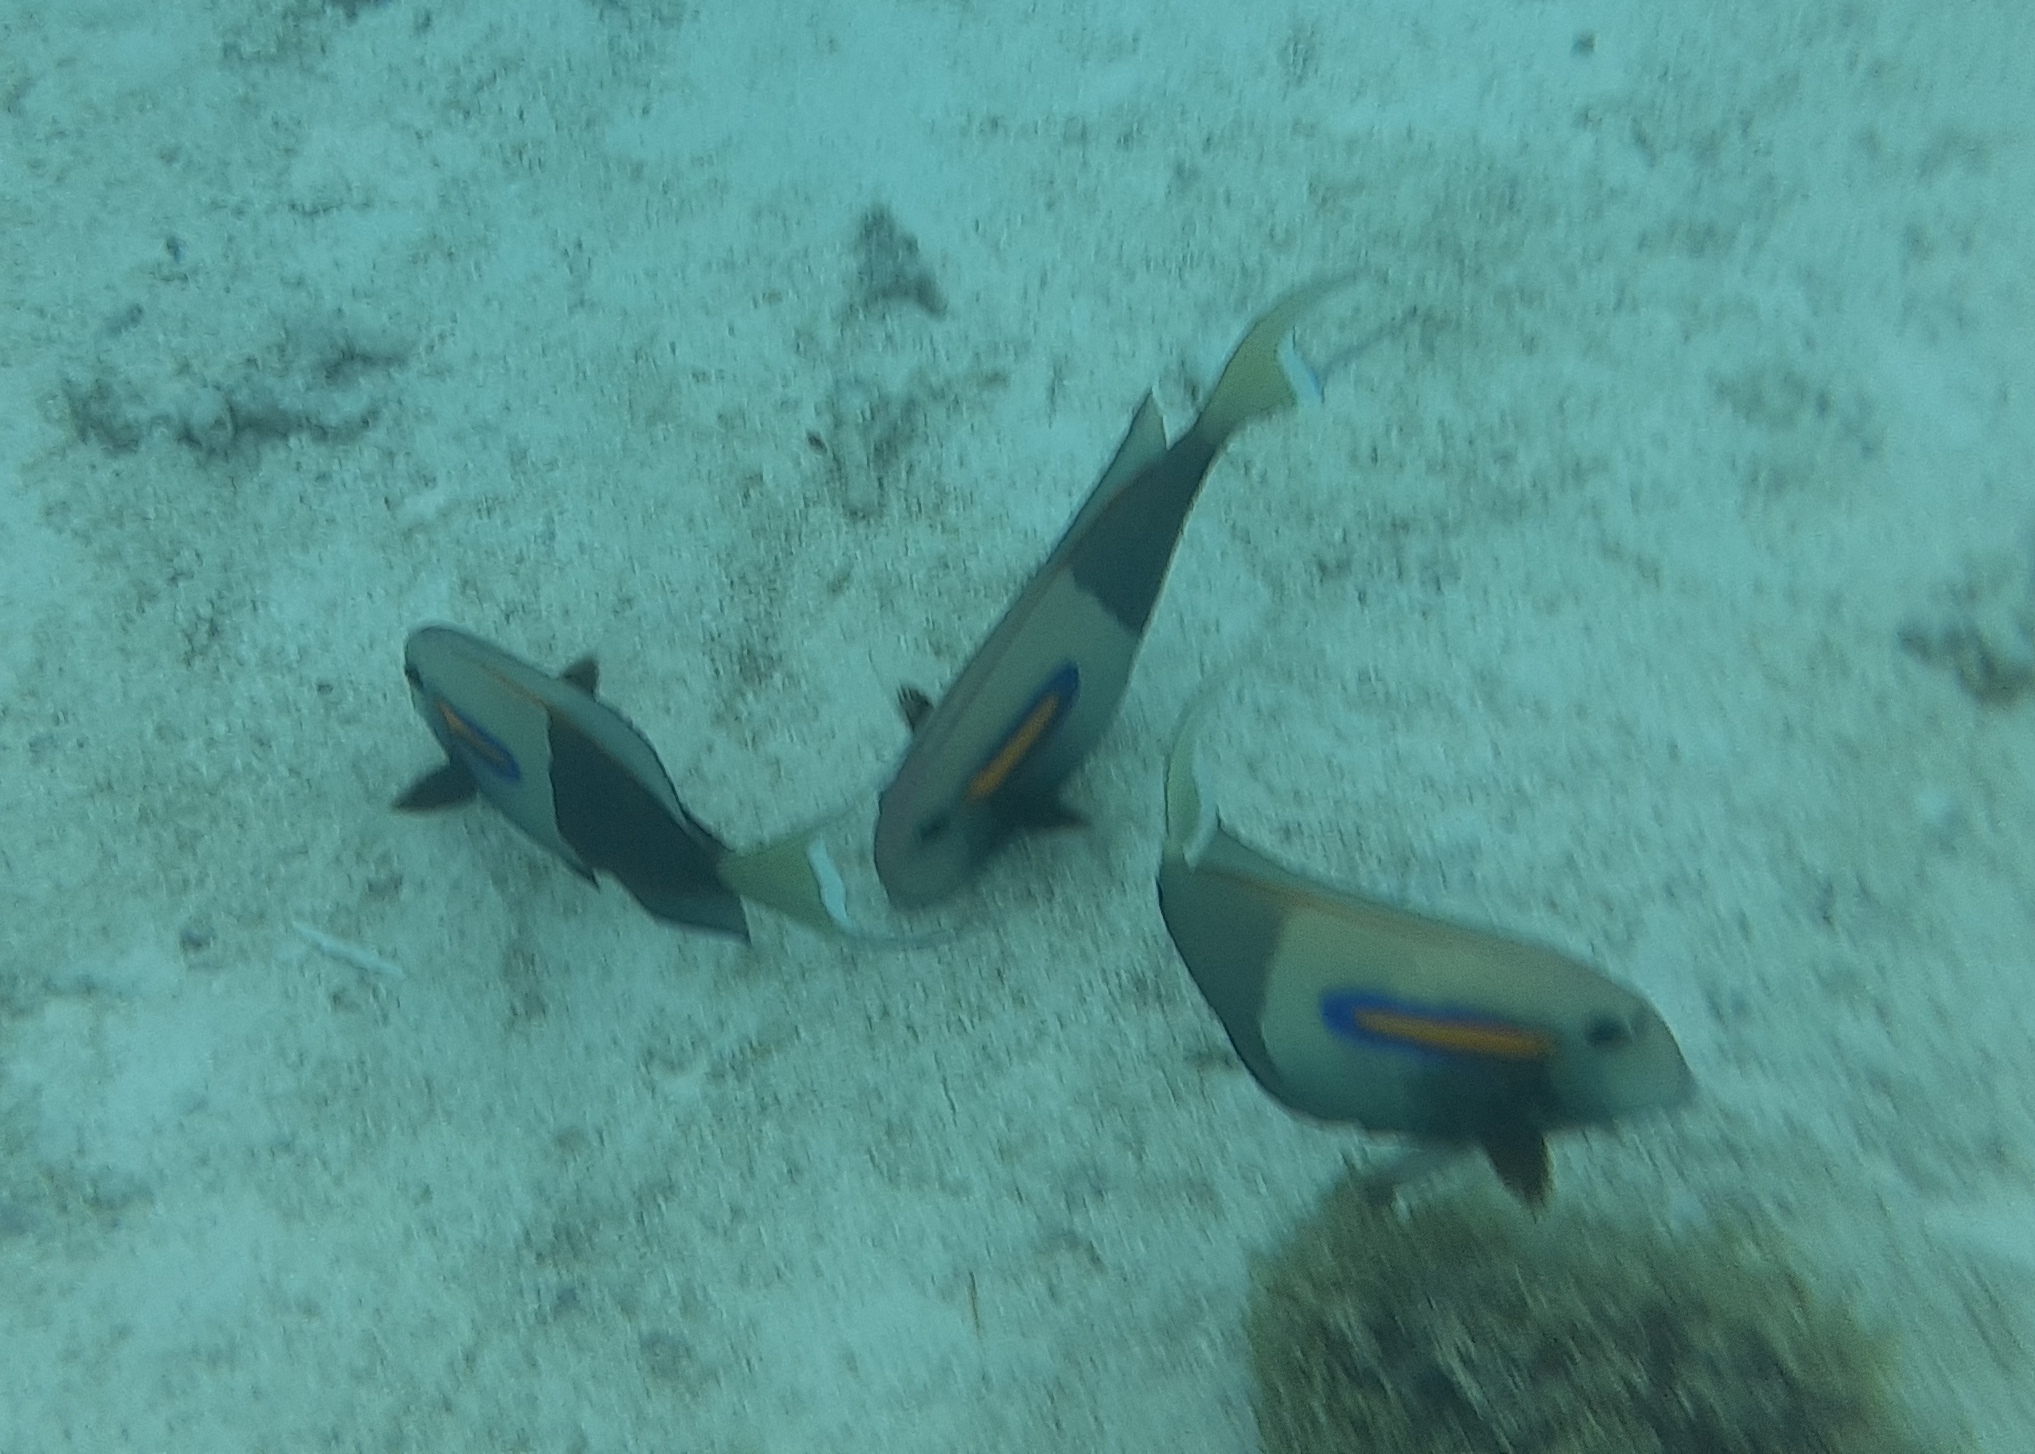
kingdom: Animalia
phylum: Chordata
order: Perciformes
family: Acanthuridae
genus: Acanthurus
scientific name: Acanthurus olivaceus
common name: Gendarme fish
